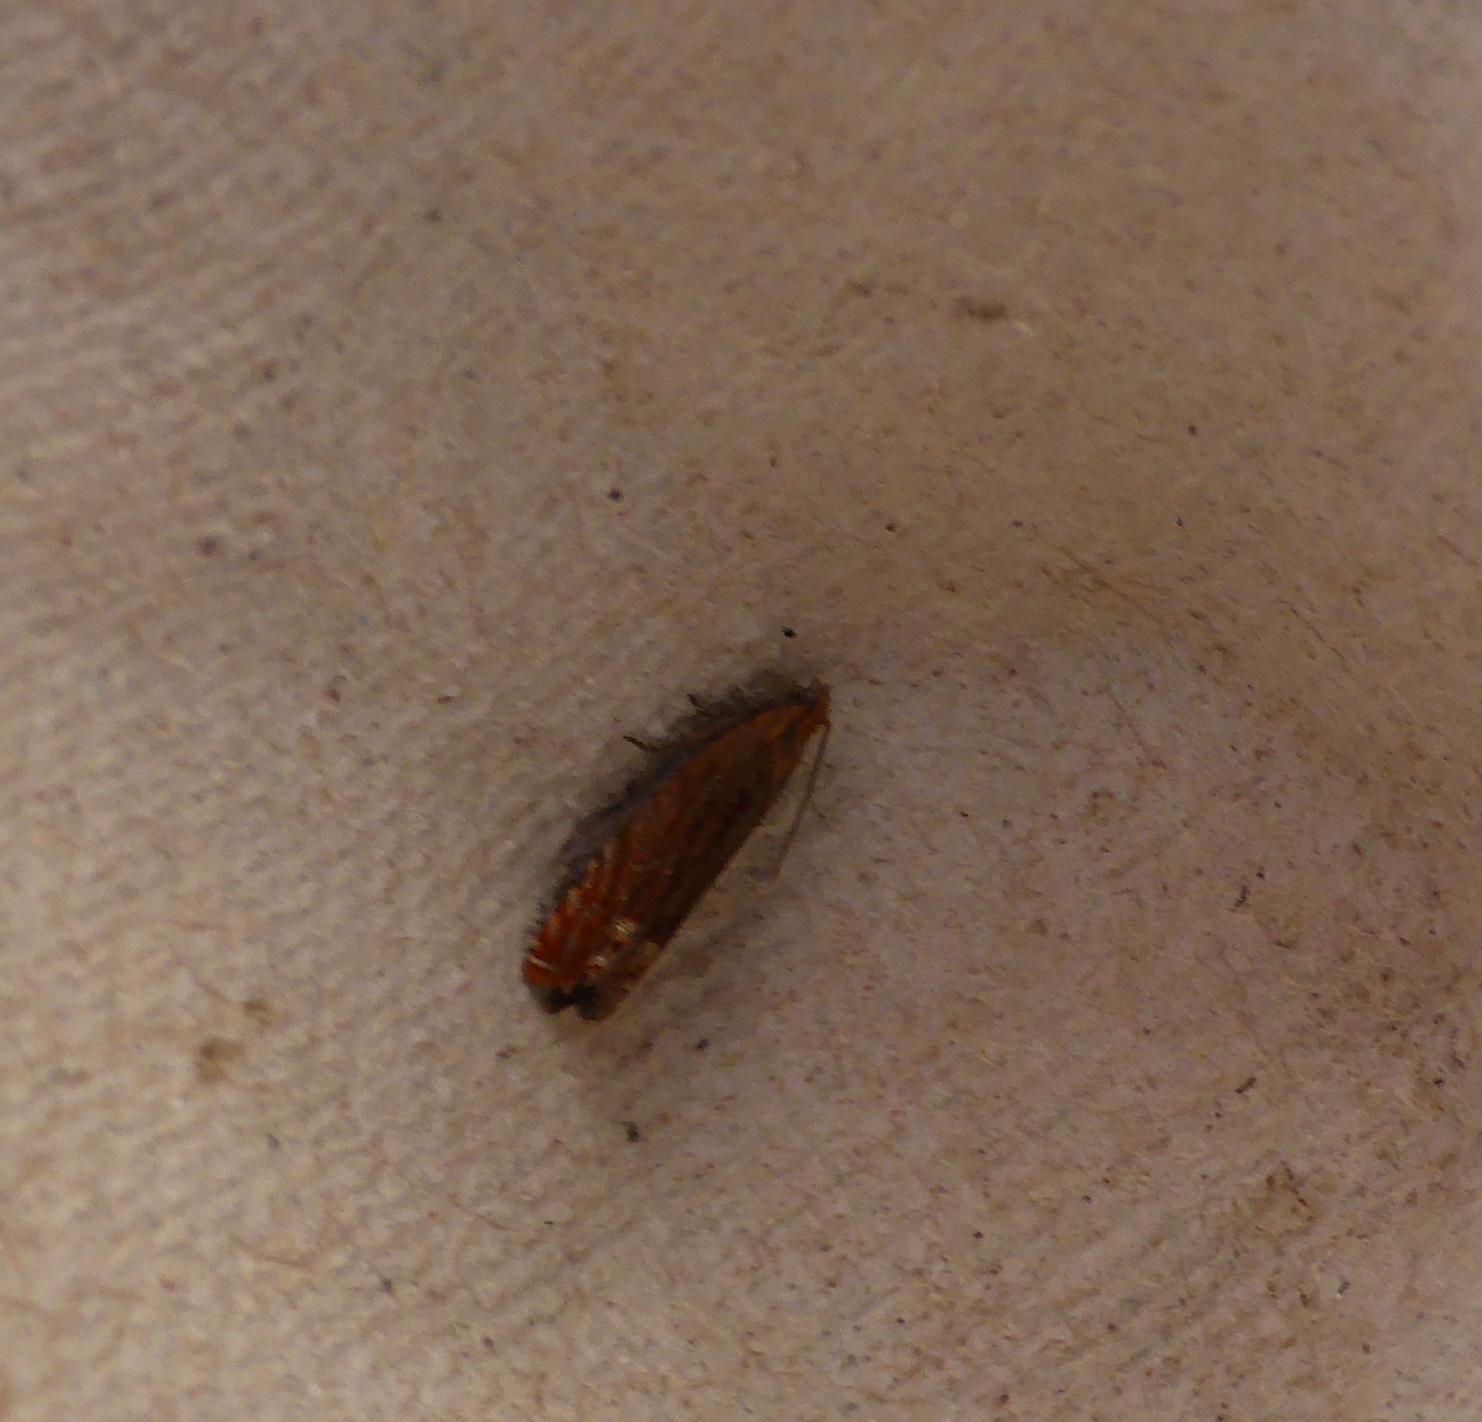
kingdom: Animalia
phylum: Arthropoda
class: Insecta
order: Lepidoptera
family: Tortricidae
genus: Lathronympha
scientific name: Lathronympha strigana
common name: Red piercer
